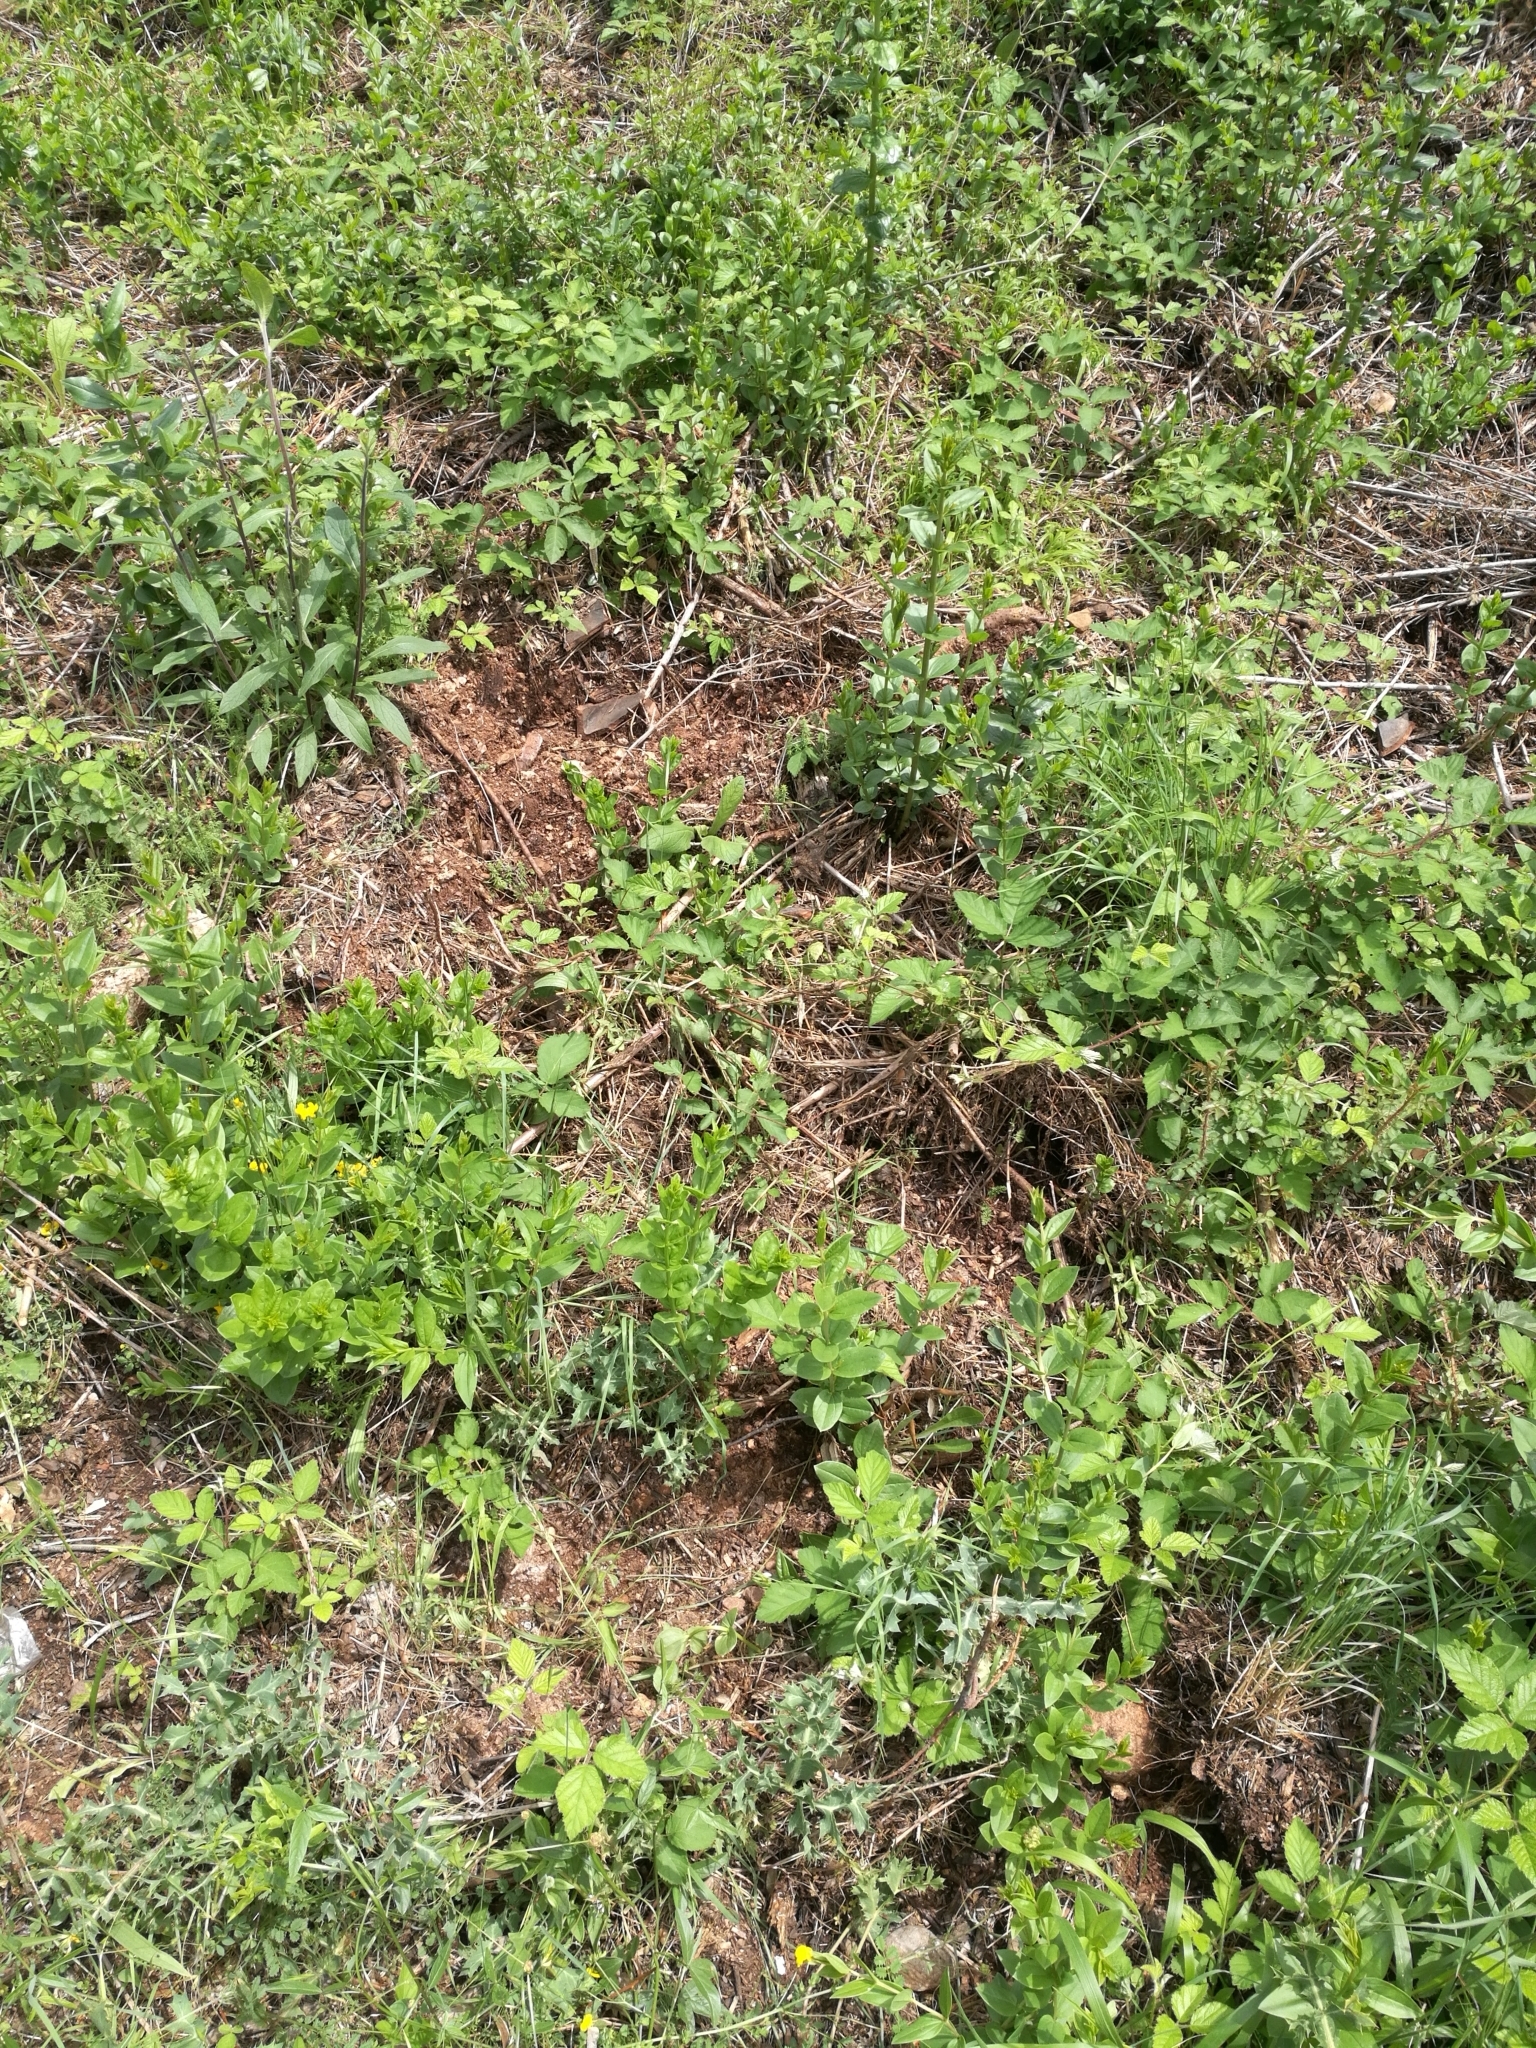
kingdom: Animalia
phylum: Chordata
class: Mammalia
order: Artiodactyla
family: Suidae
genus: Sus
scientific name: Sus scrofa
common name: Wild boar
